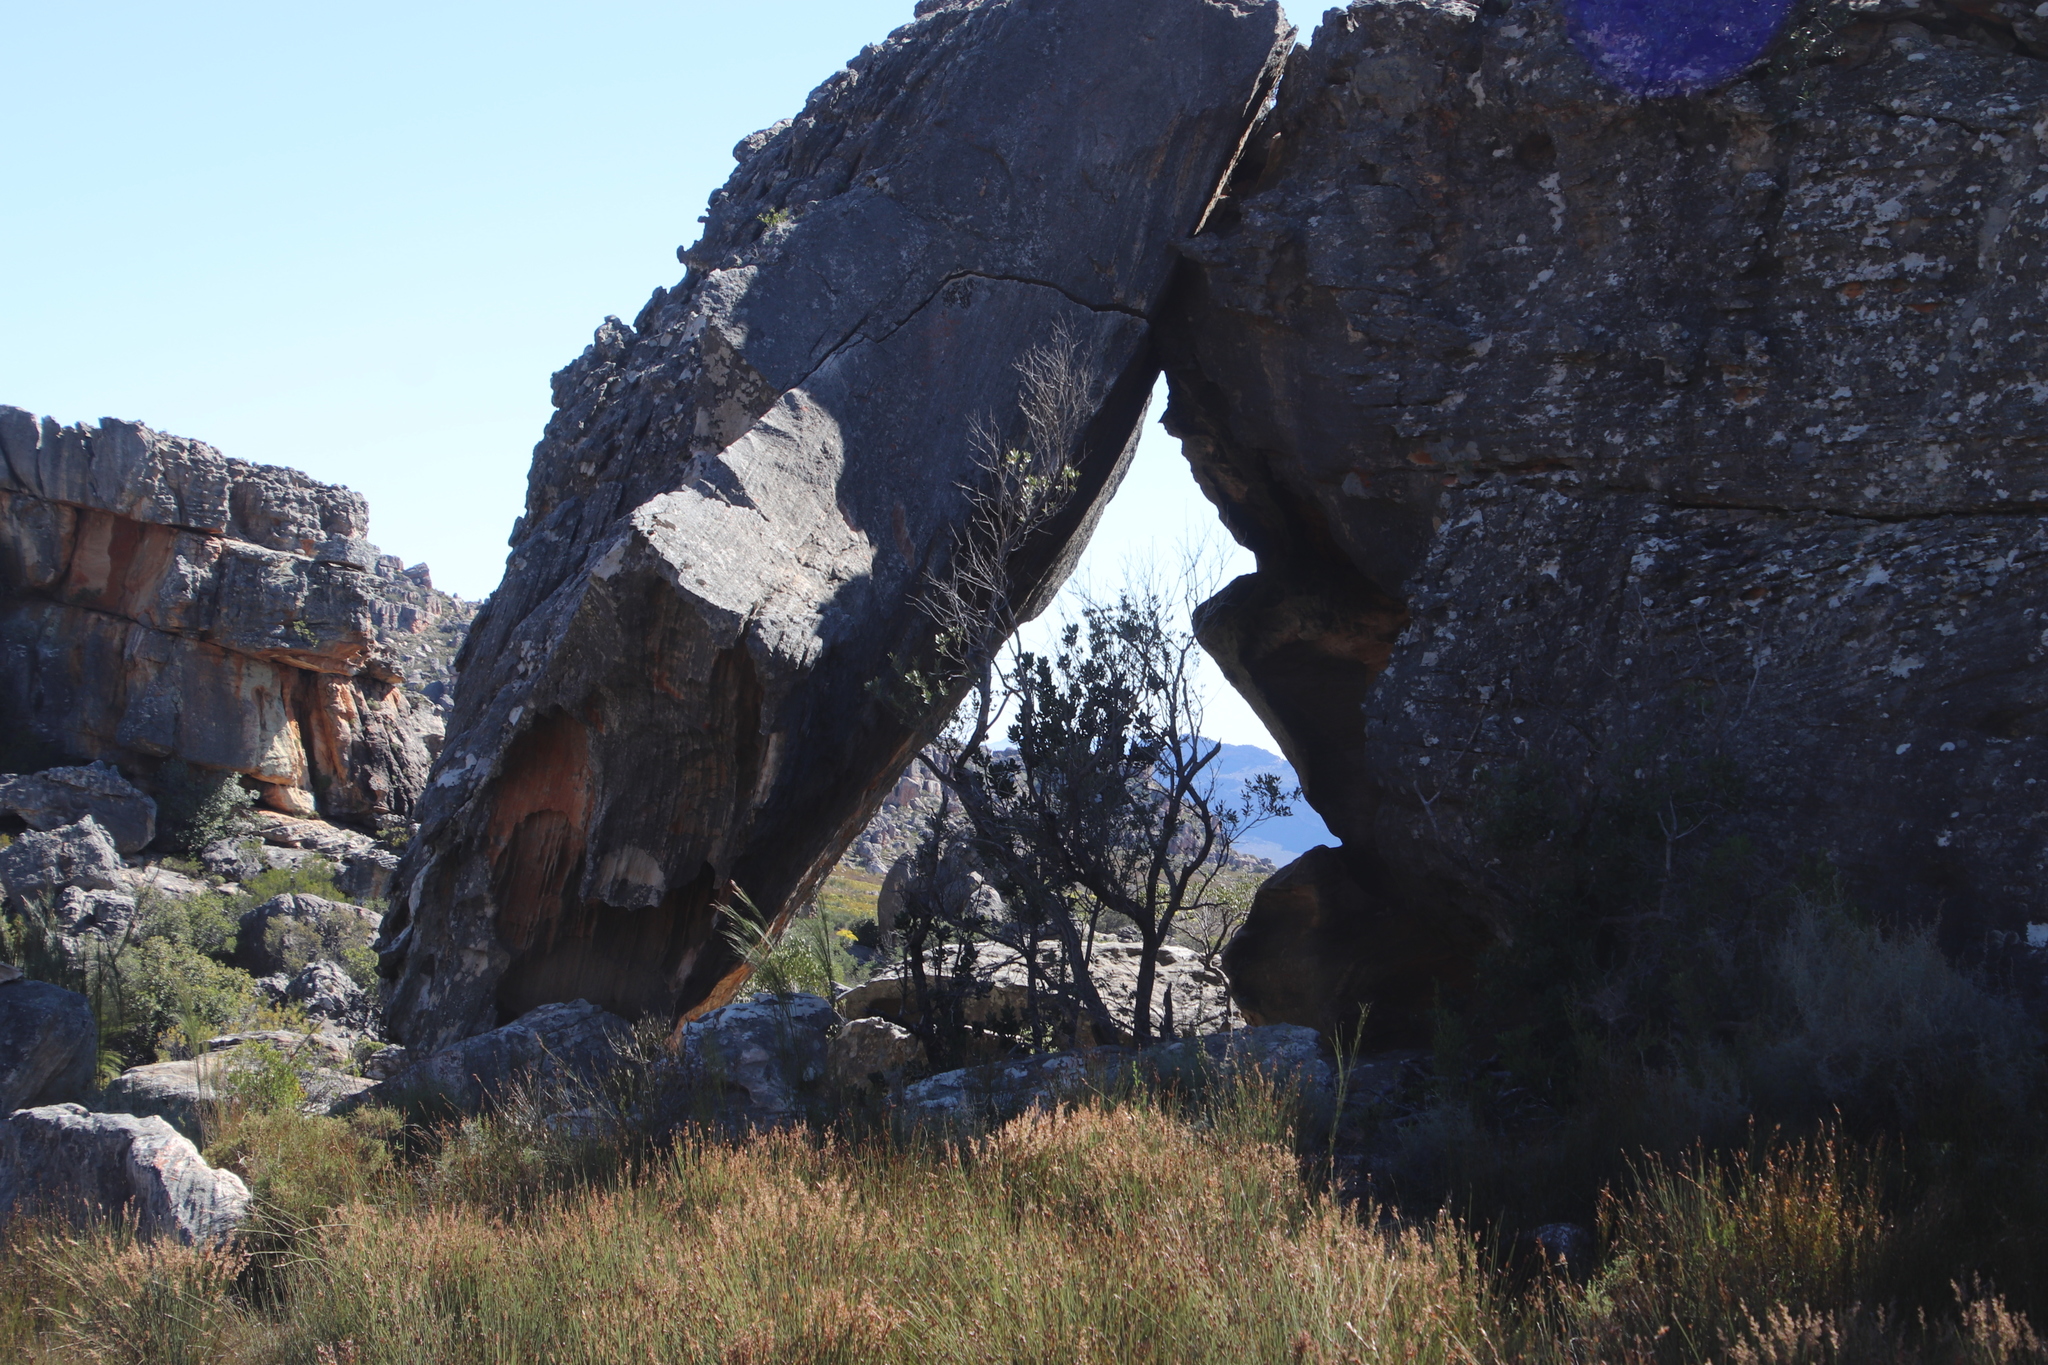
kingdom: Plantae
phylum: Tracheophyta
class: Magnoliopsida
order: Sapindales
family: Anacardiaceae
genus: Heeria
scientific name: Heeria argentea
